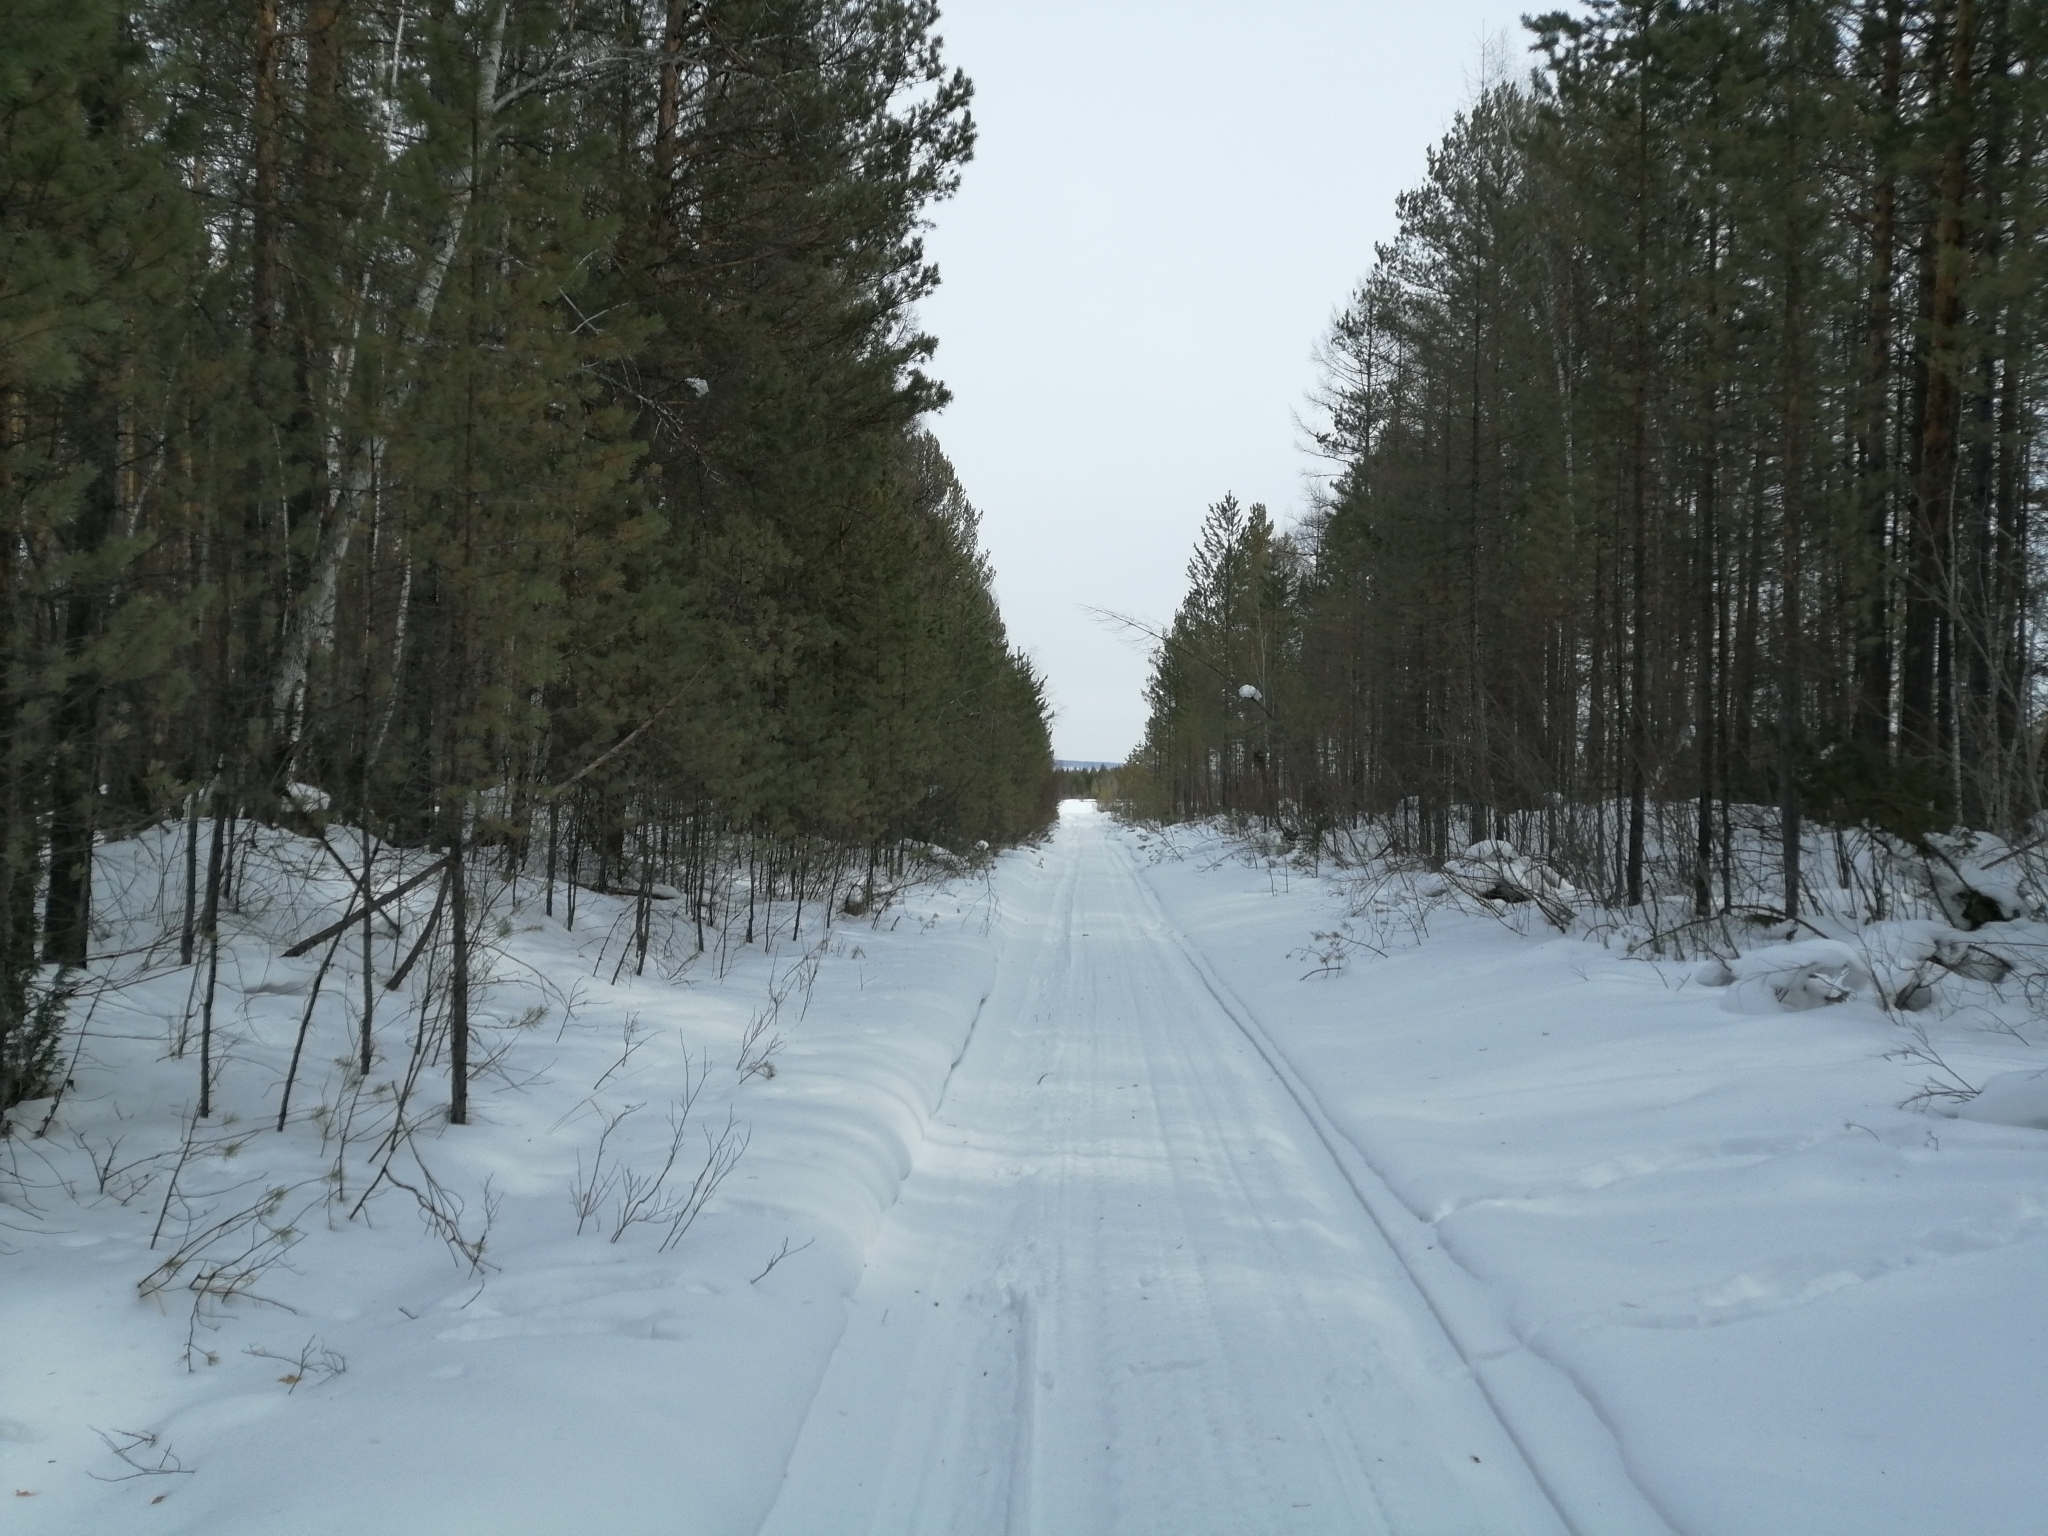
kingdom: Plantae
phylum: Tracheophyta
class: Pinopsida
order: Pinales
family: Pinaceae
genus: Pinus
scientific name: Pinus sylvestris
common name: Scots pine
